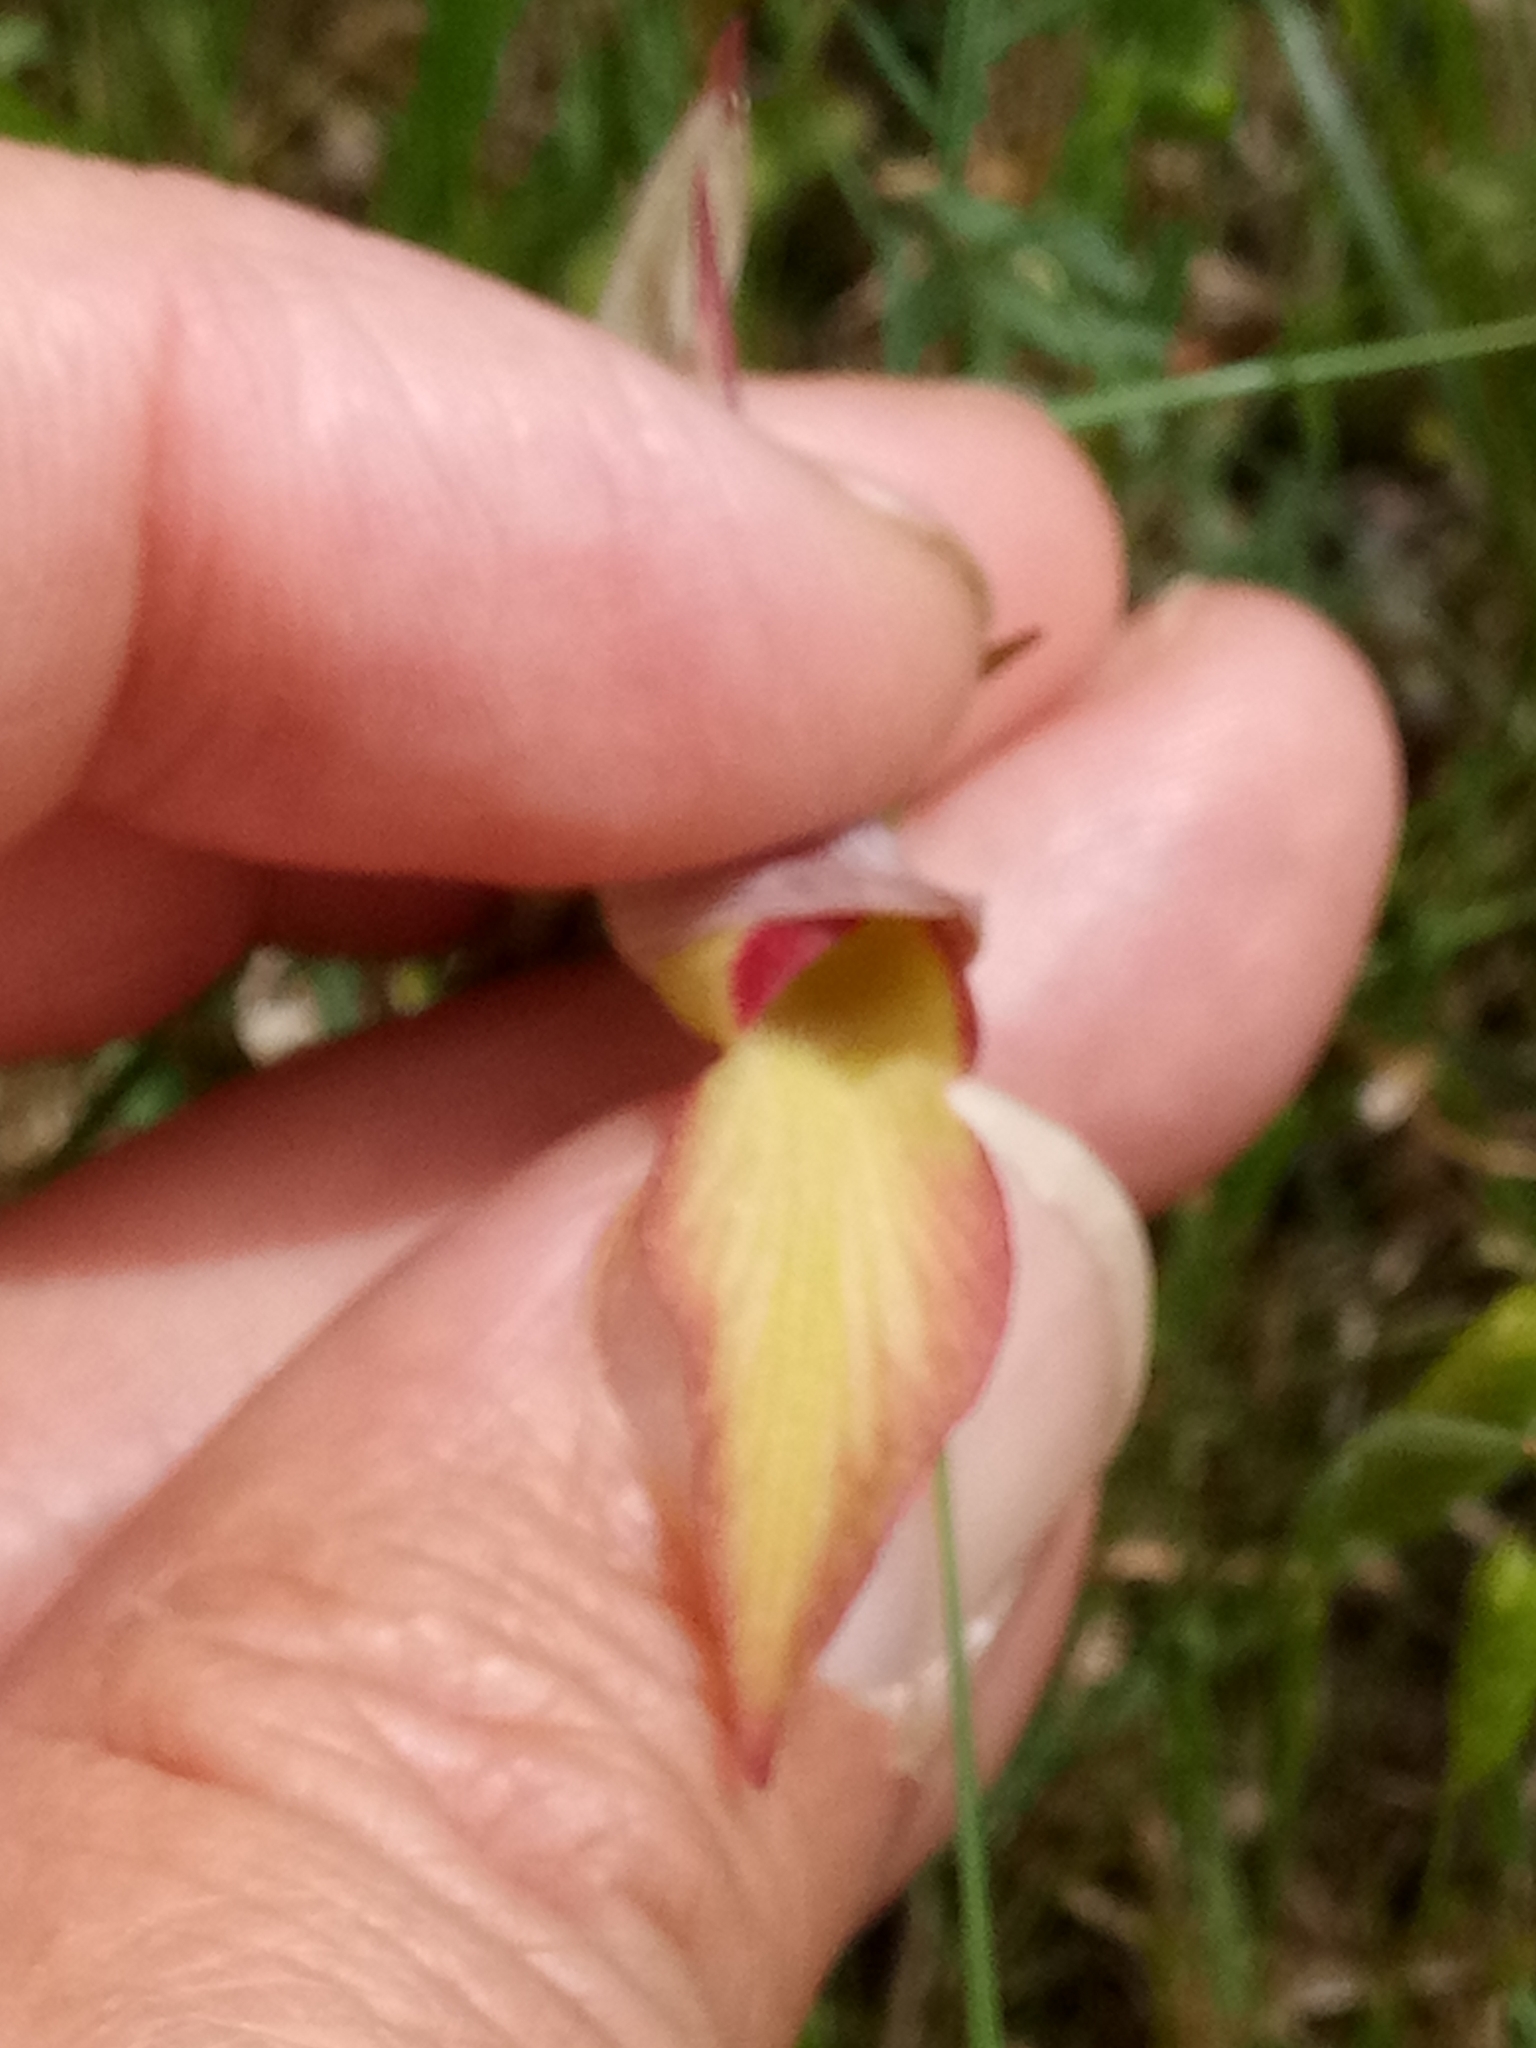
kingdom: Plantae
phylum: Tracheophyta
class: Liliopsida
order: Asparagales
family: Orchidaceae
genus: Serapias
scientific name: Serapias lingua
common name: Tongue-orchid
